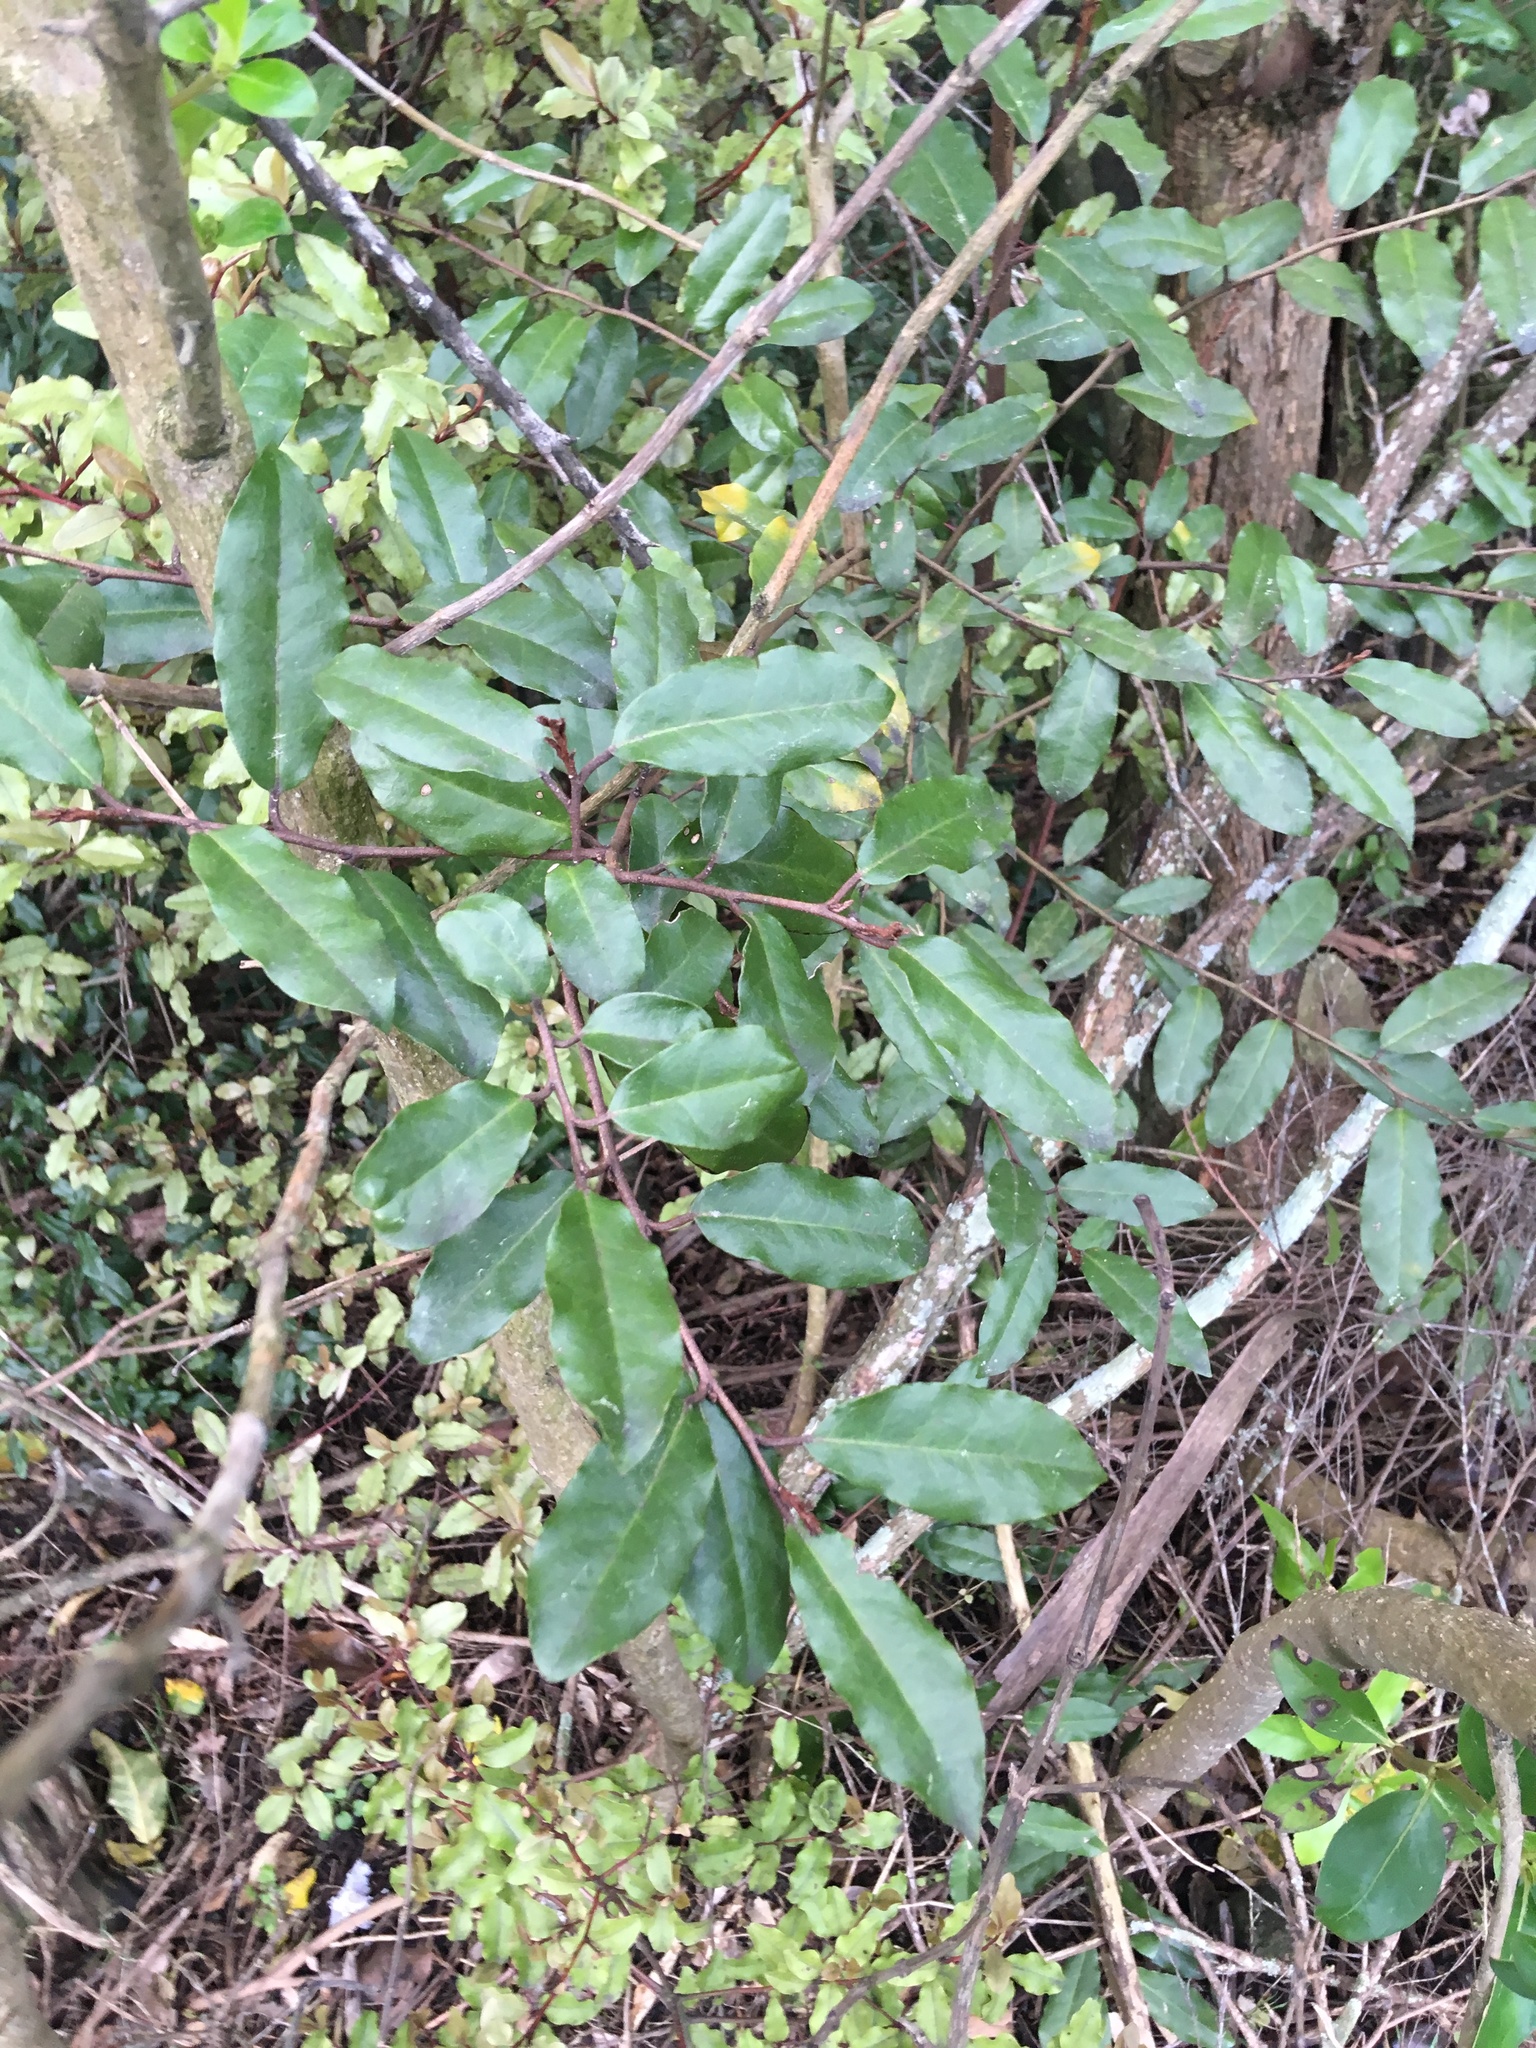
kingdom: Plantae
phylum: Tracheophyta
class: Magnoliopsida
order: Rosales
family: Elaeagnaceae
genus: Elaeagnus
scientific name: Elaeagnus reflexa
